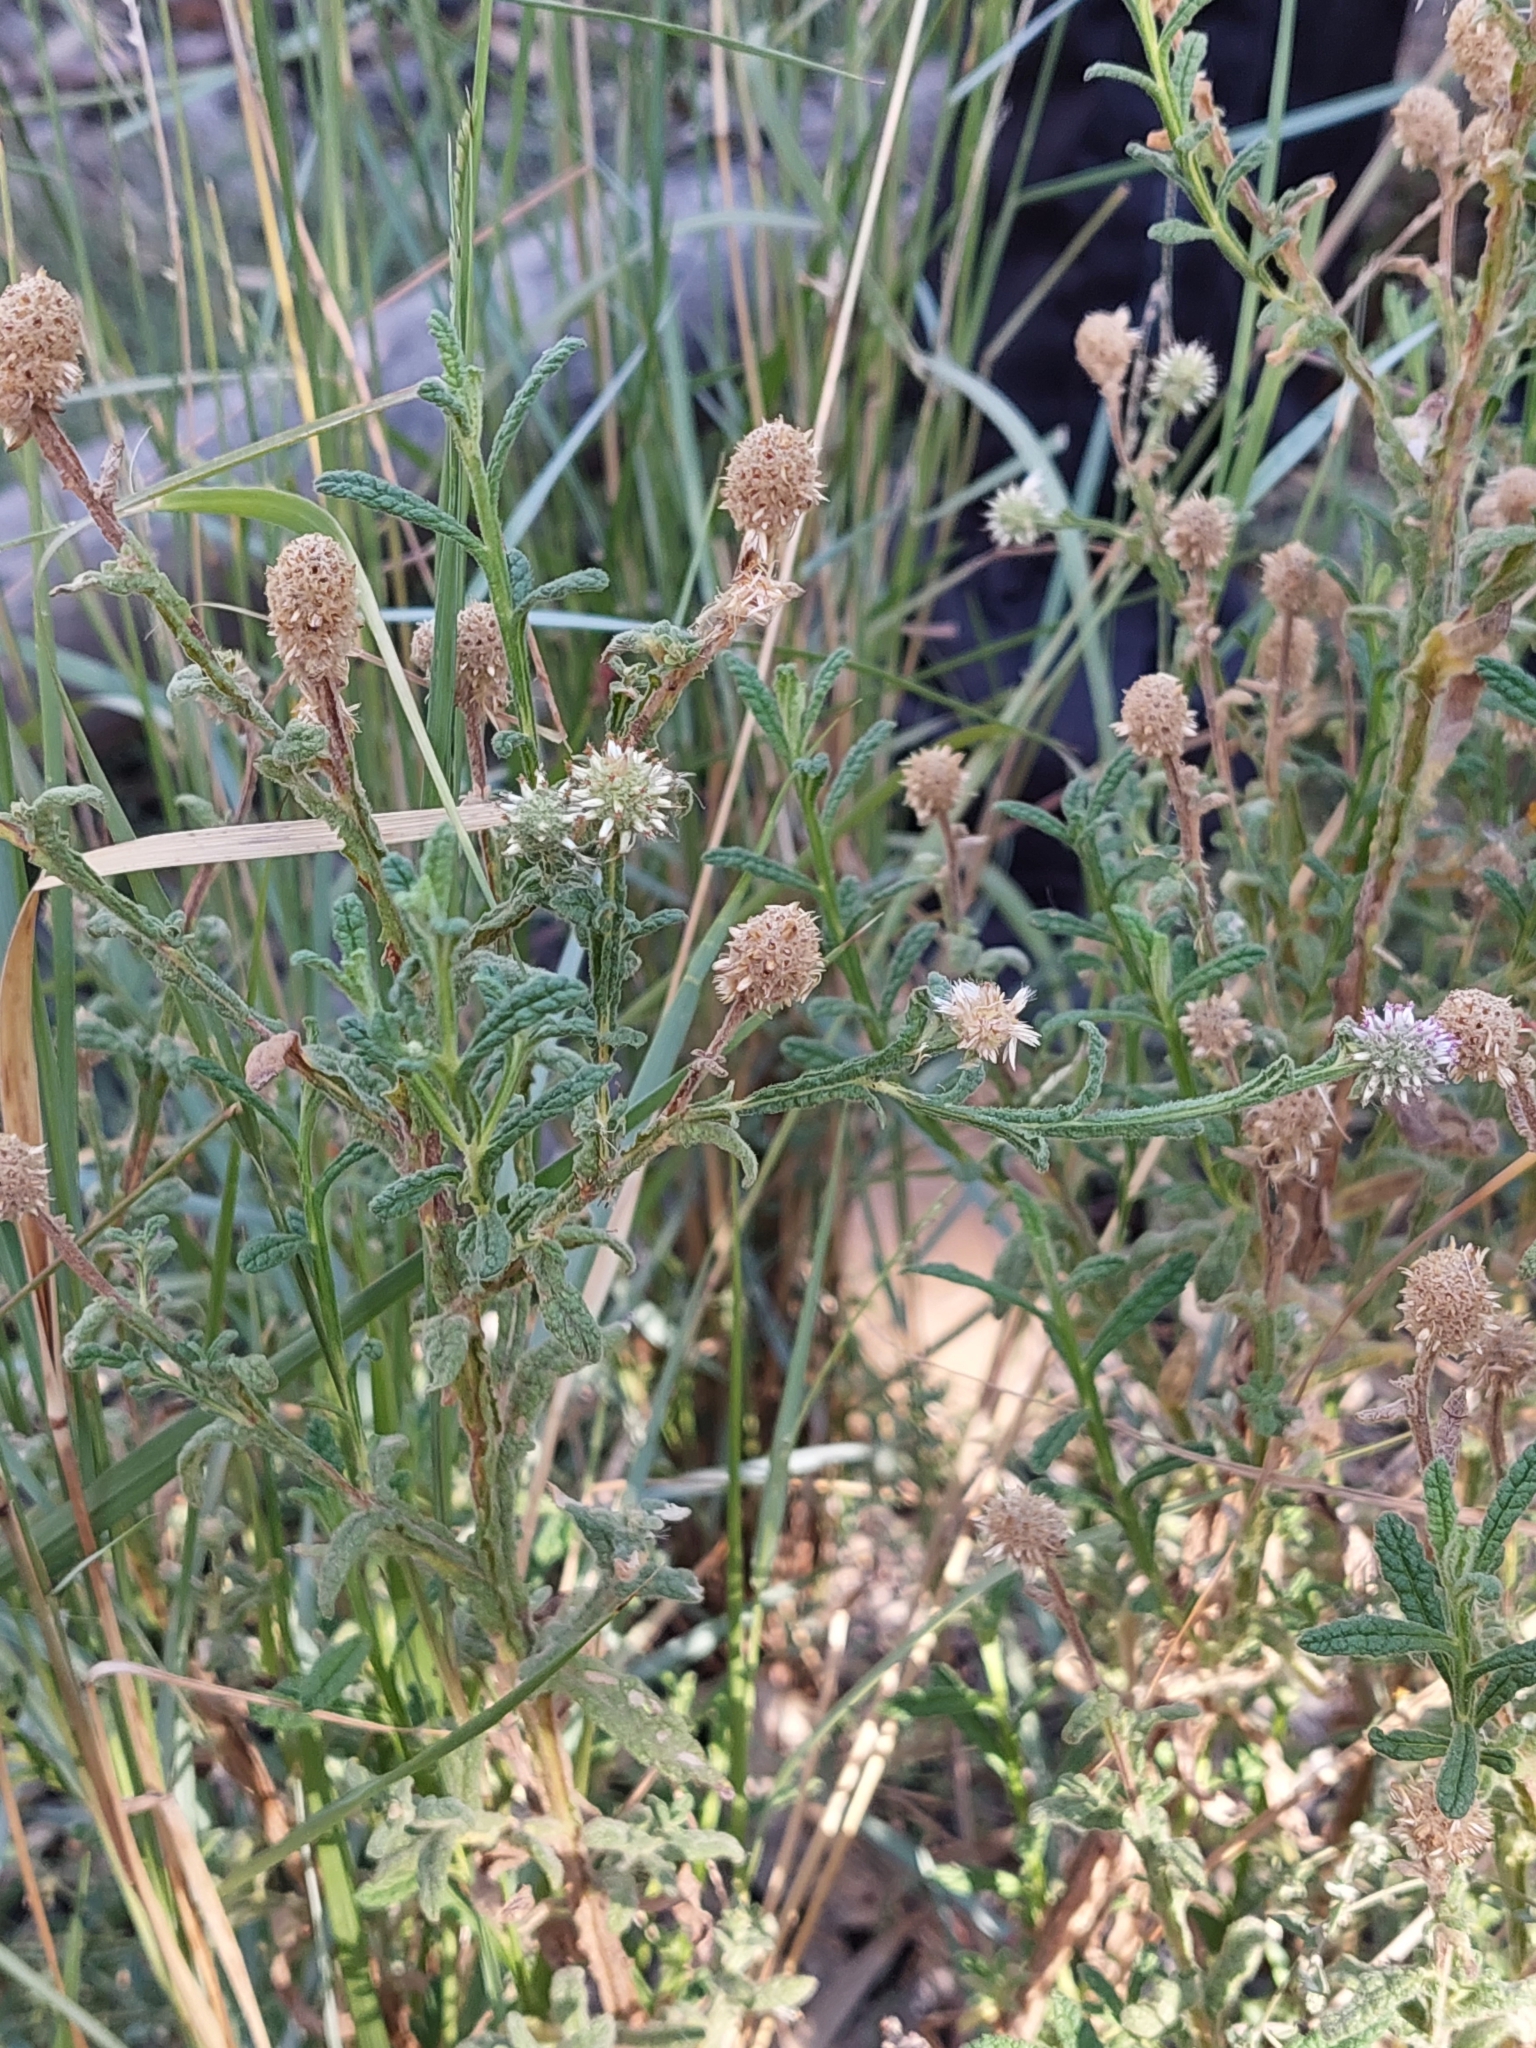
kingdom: Plantae
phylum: Tracheophyta
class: Magnoliopsida
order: Asterales
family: Asteraceae
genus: Pterocaulon
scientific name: Pterocaulon sphacelatum
